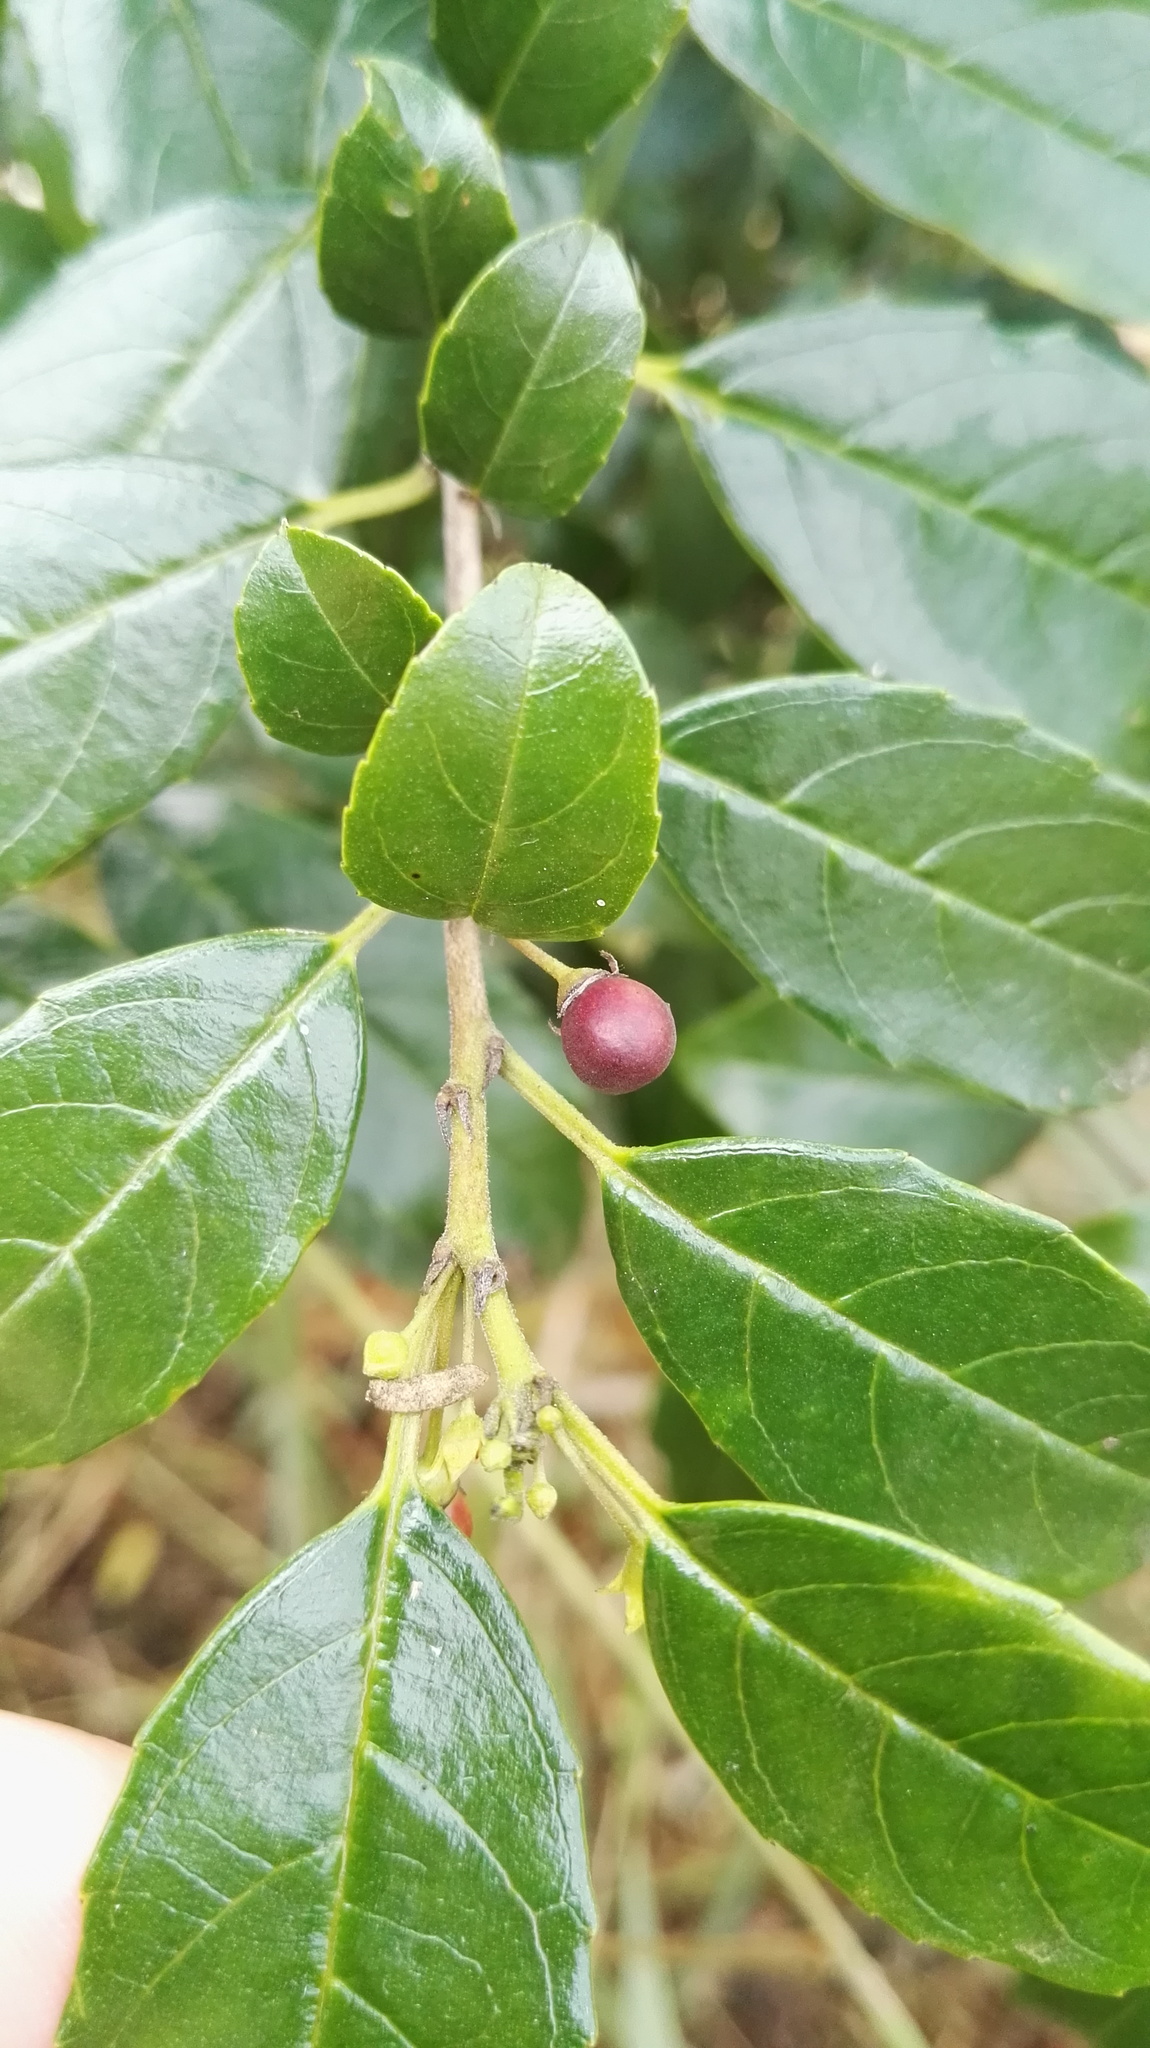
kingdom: Plantae
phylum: Tracheophyta
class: Magnoliopsida
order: Rosales
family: Rhamnaceae
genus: Rhamnus
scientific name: Rhamnus prinoides
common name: Dogwood
